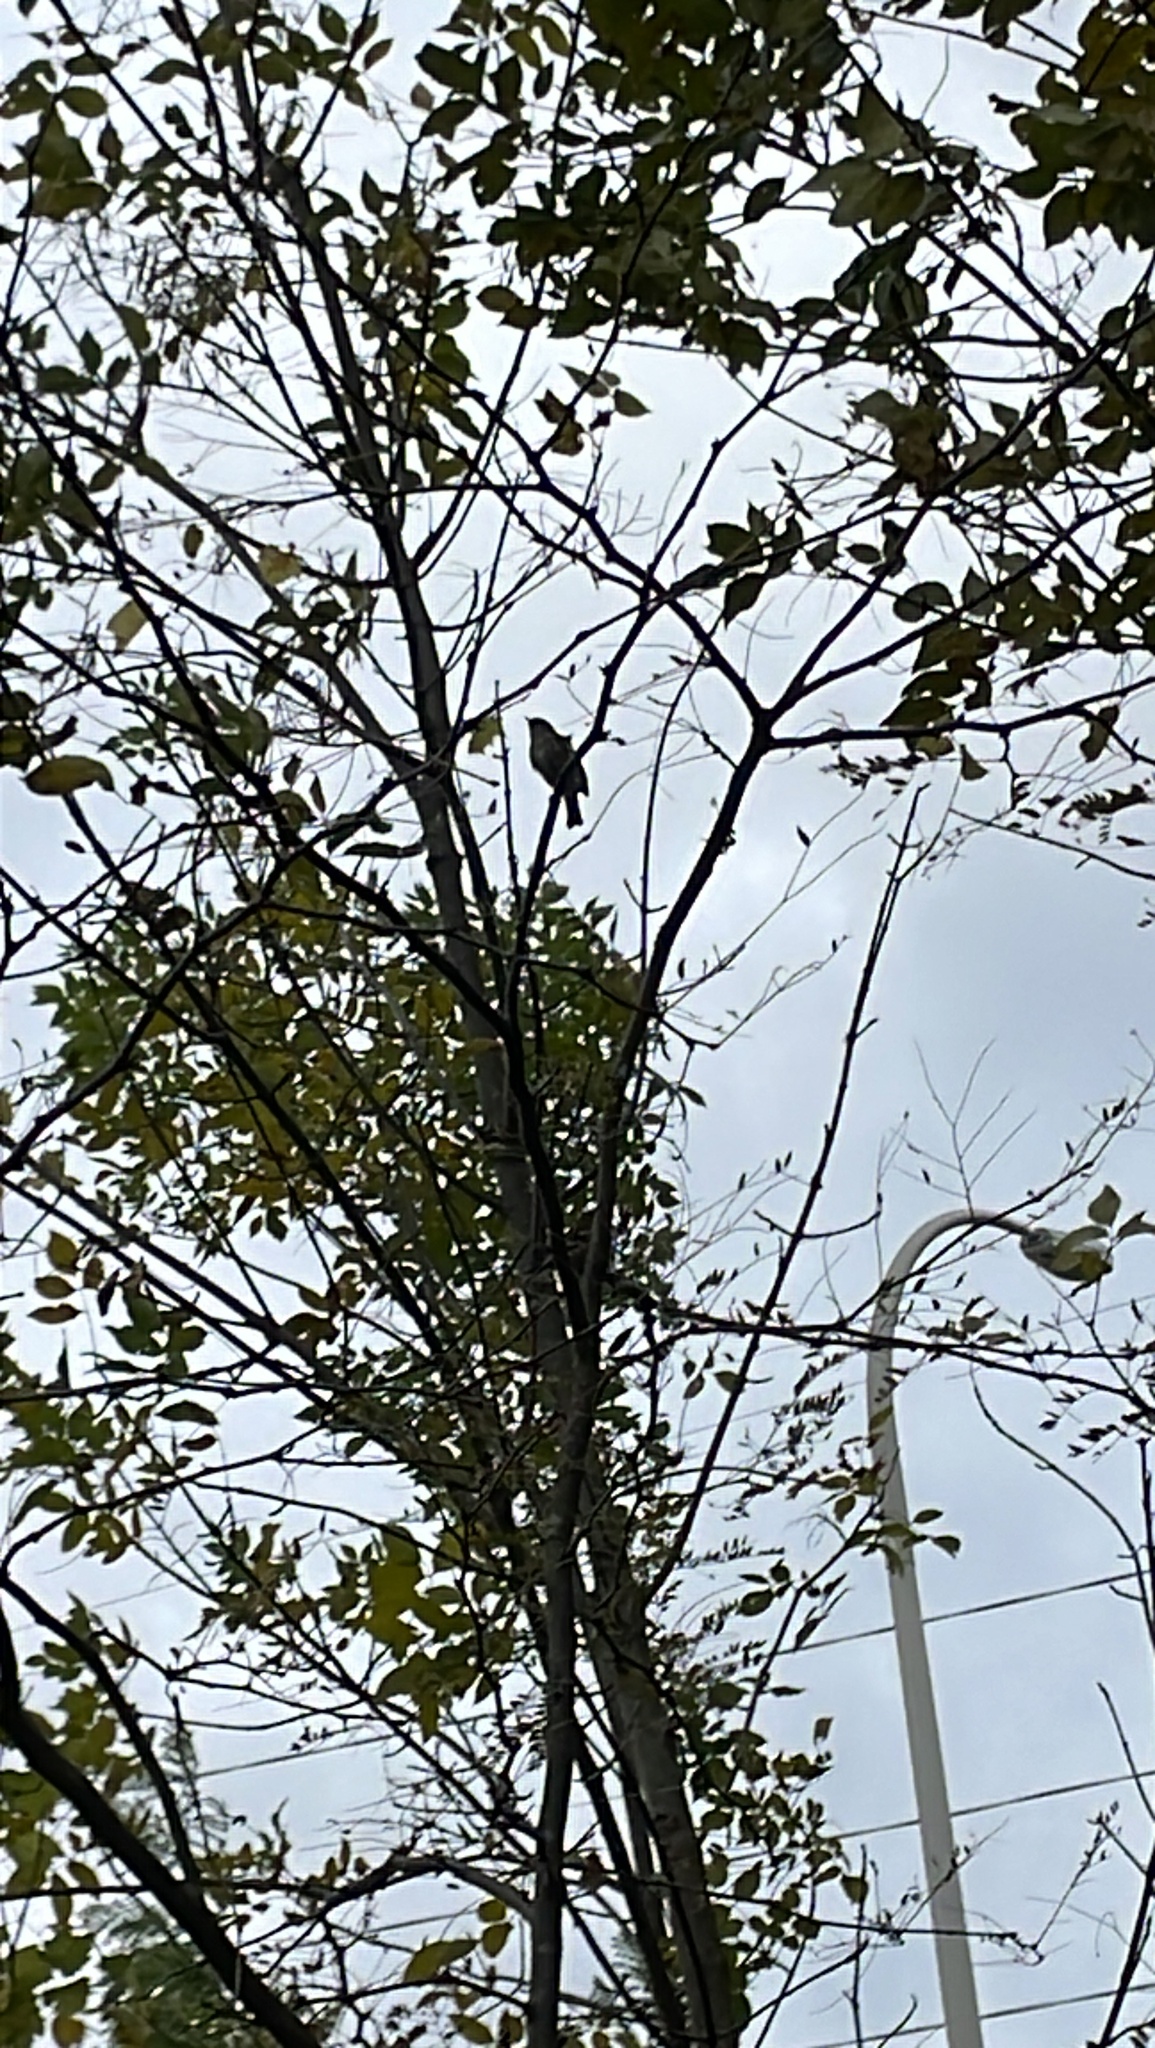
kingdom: Animalia
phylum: Chordata
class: Aves
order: Passeriformes
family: Parulidae
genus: Setophaga
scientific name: Setophaga coronata
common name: Myrtle warbler
